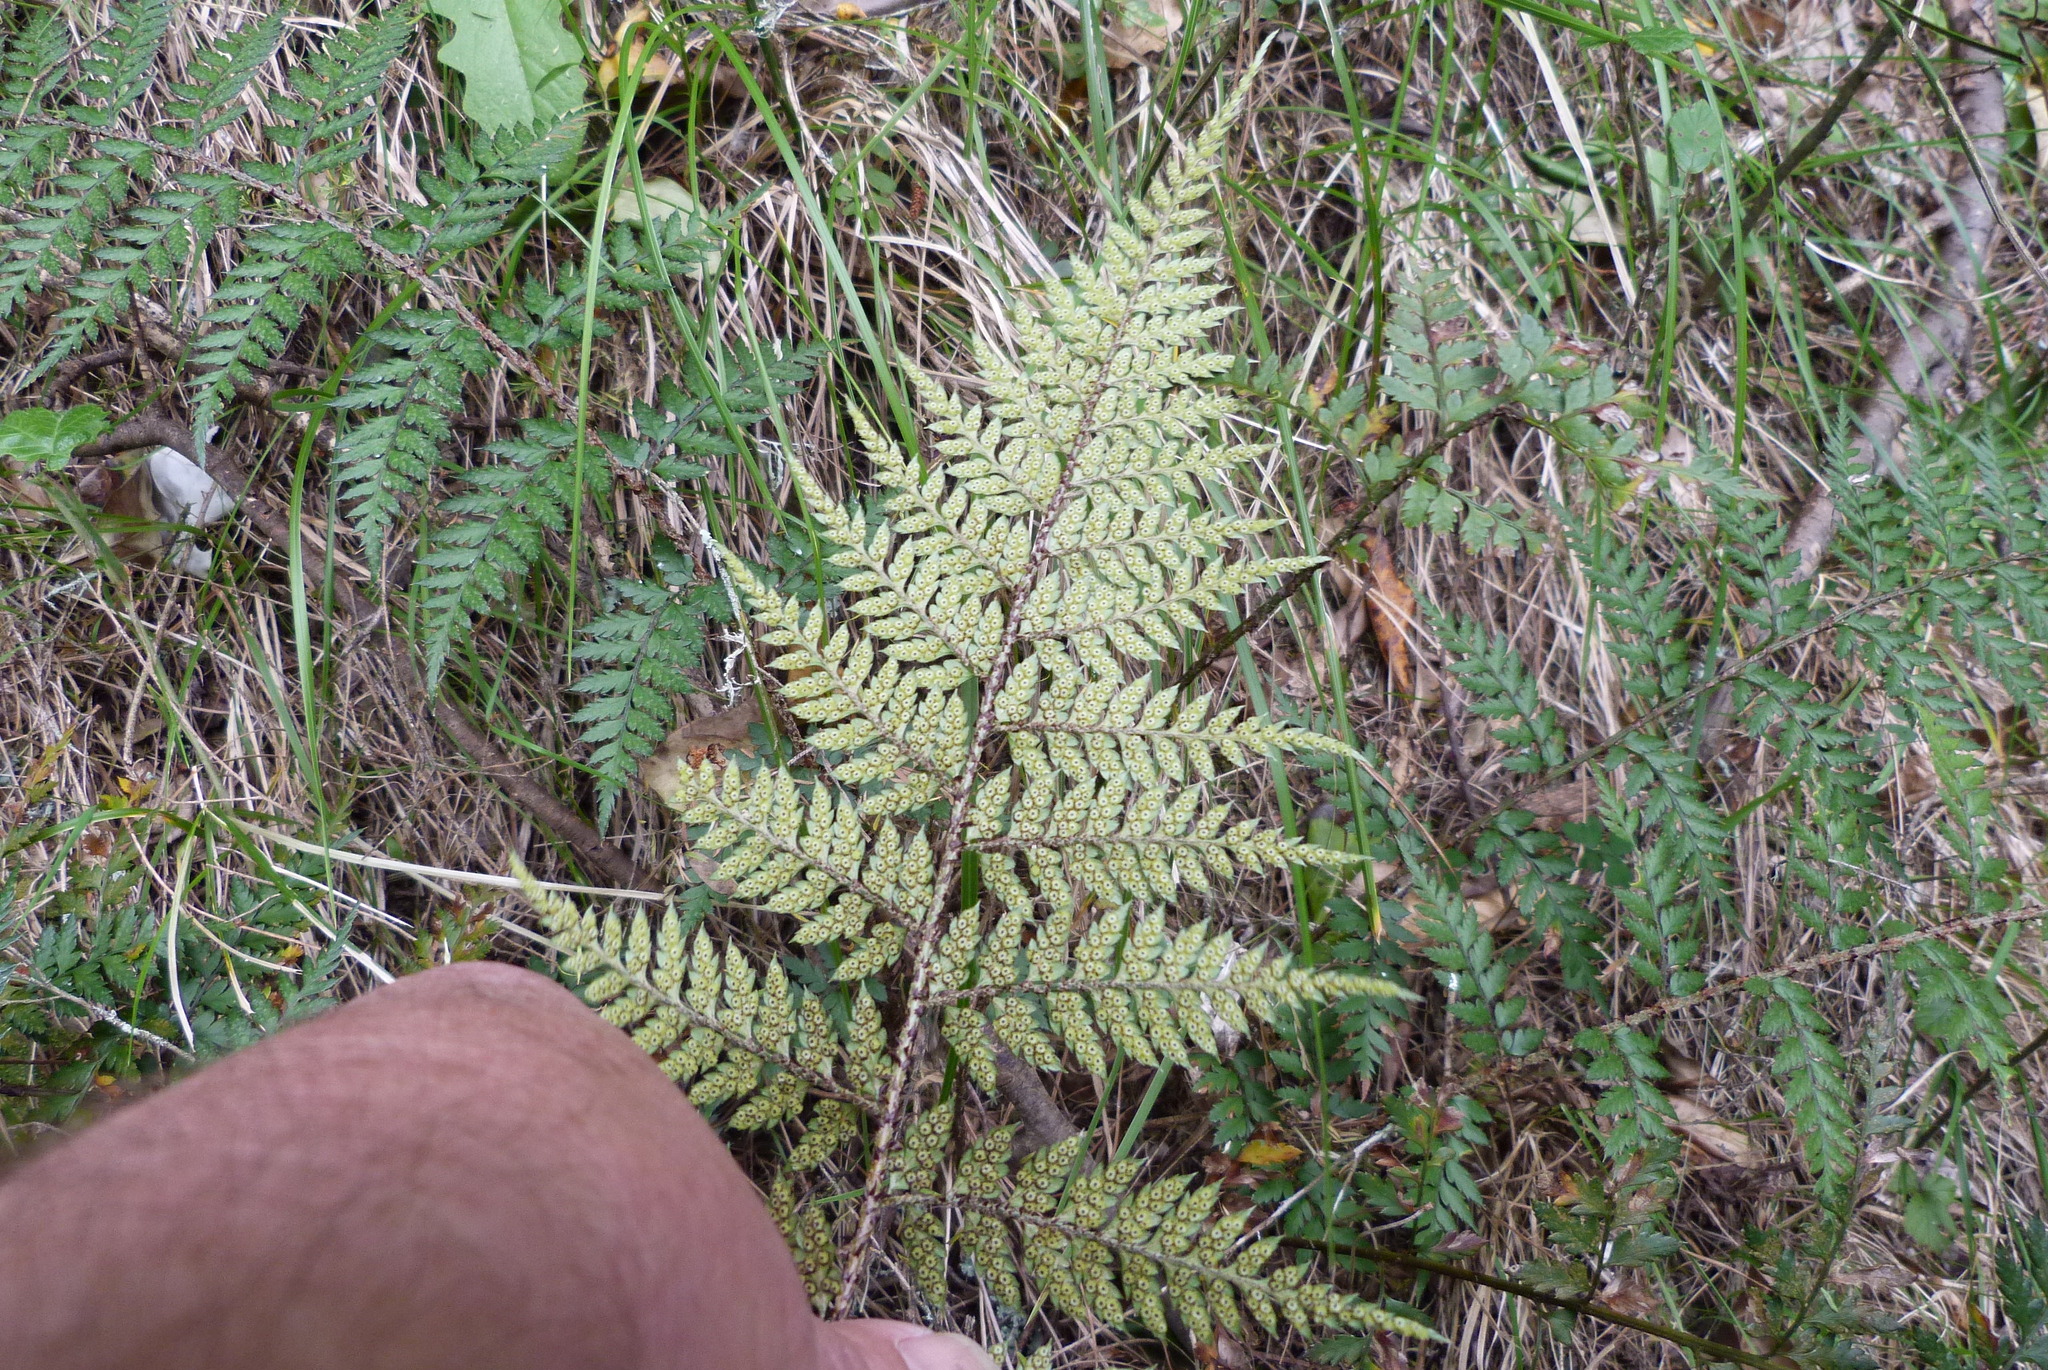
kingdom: Plantae
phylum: Tracheophyta
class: Polypodiopsida
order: Polypodiales
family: Dryopteridaceae
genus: Polystichum
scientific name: Polystichum oculatum
